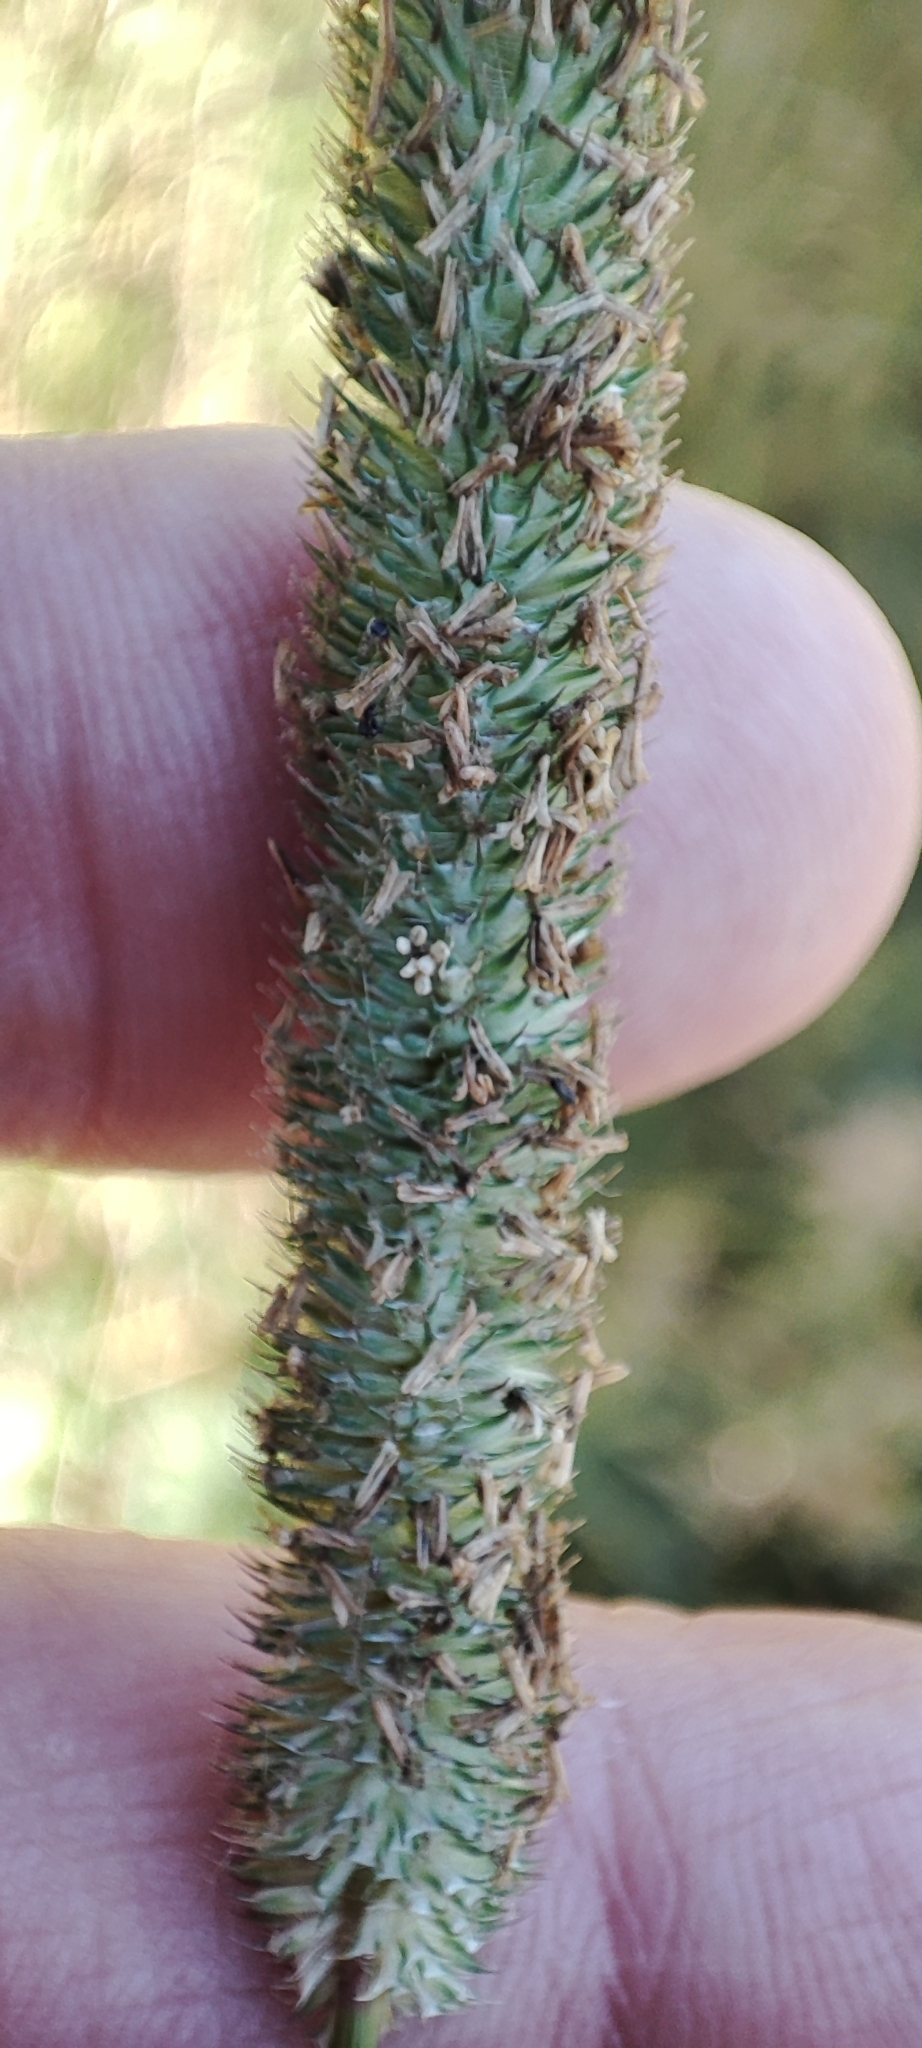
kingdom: Plantae
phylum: Tracheophyta
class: Liliopsida
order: Poales
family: Poaceae
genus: Phleum
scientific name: Phleum pratense
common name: Timothy grass
